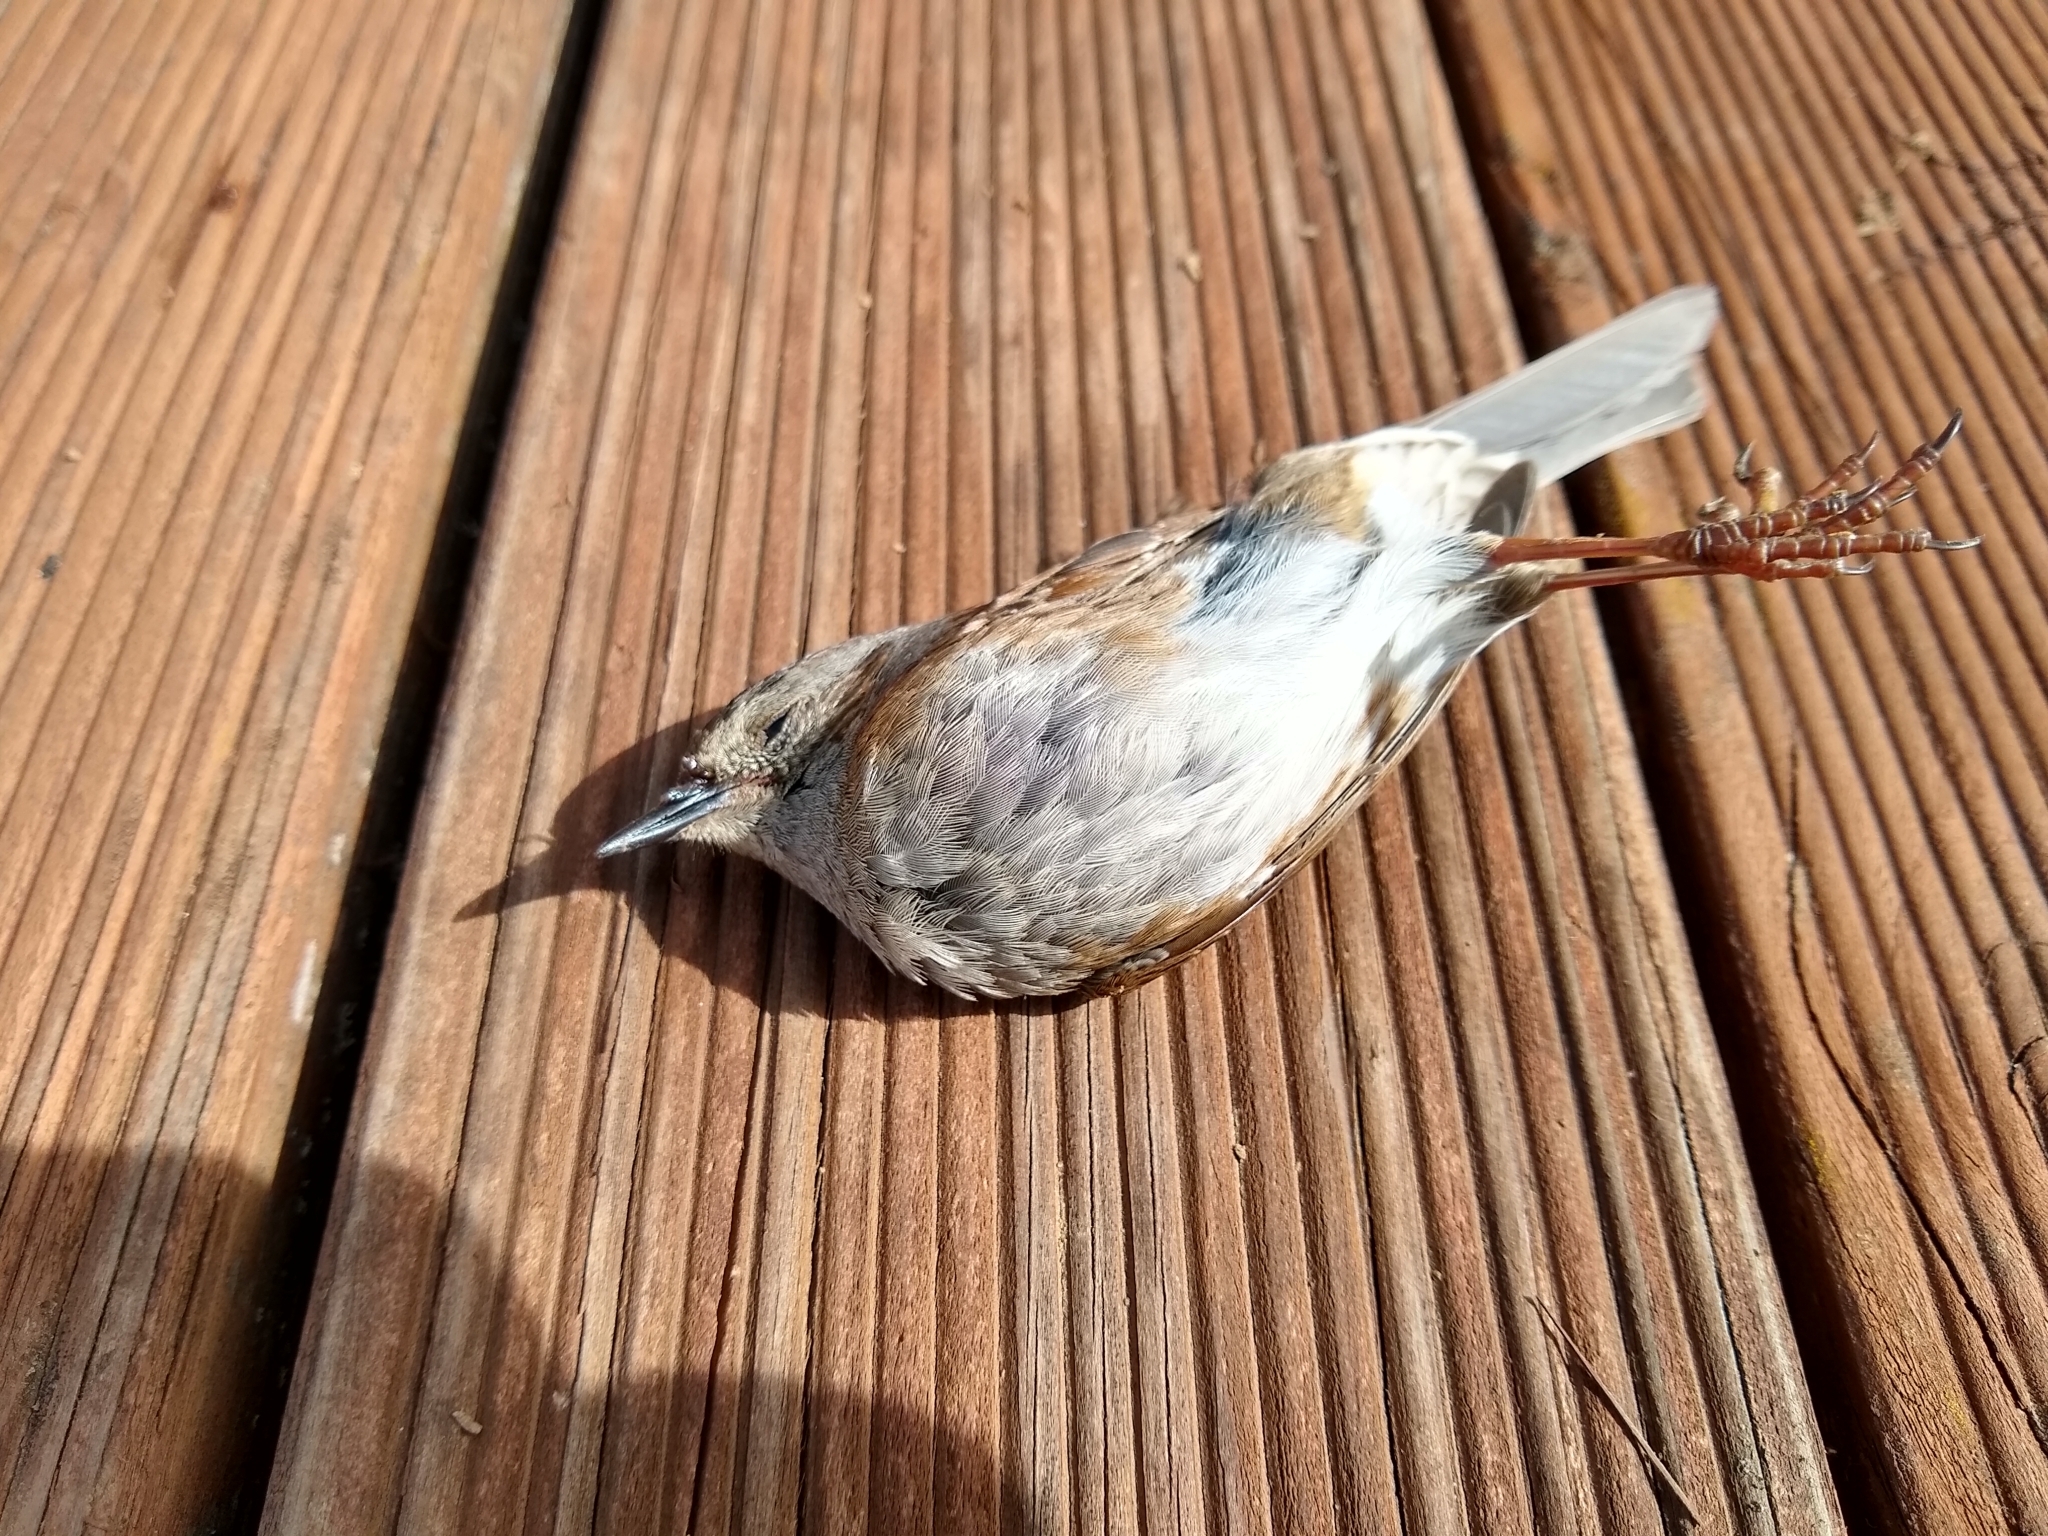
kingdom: Animalia
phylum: Chordata
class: Aves
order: Passeriformes
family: Prunellidae
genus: Prunella
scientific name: Prunella modularis
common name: Dunnock
